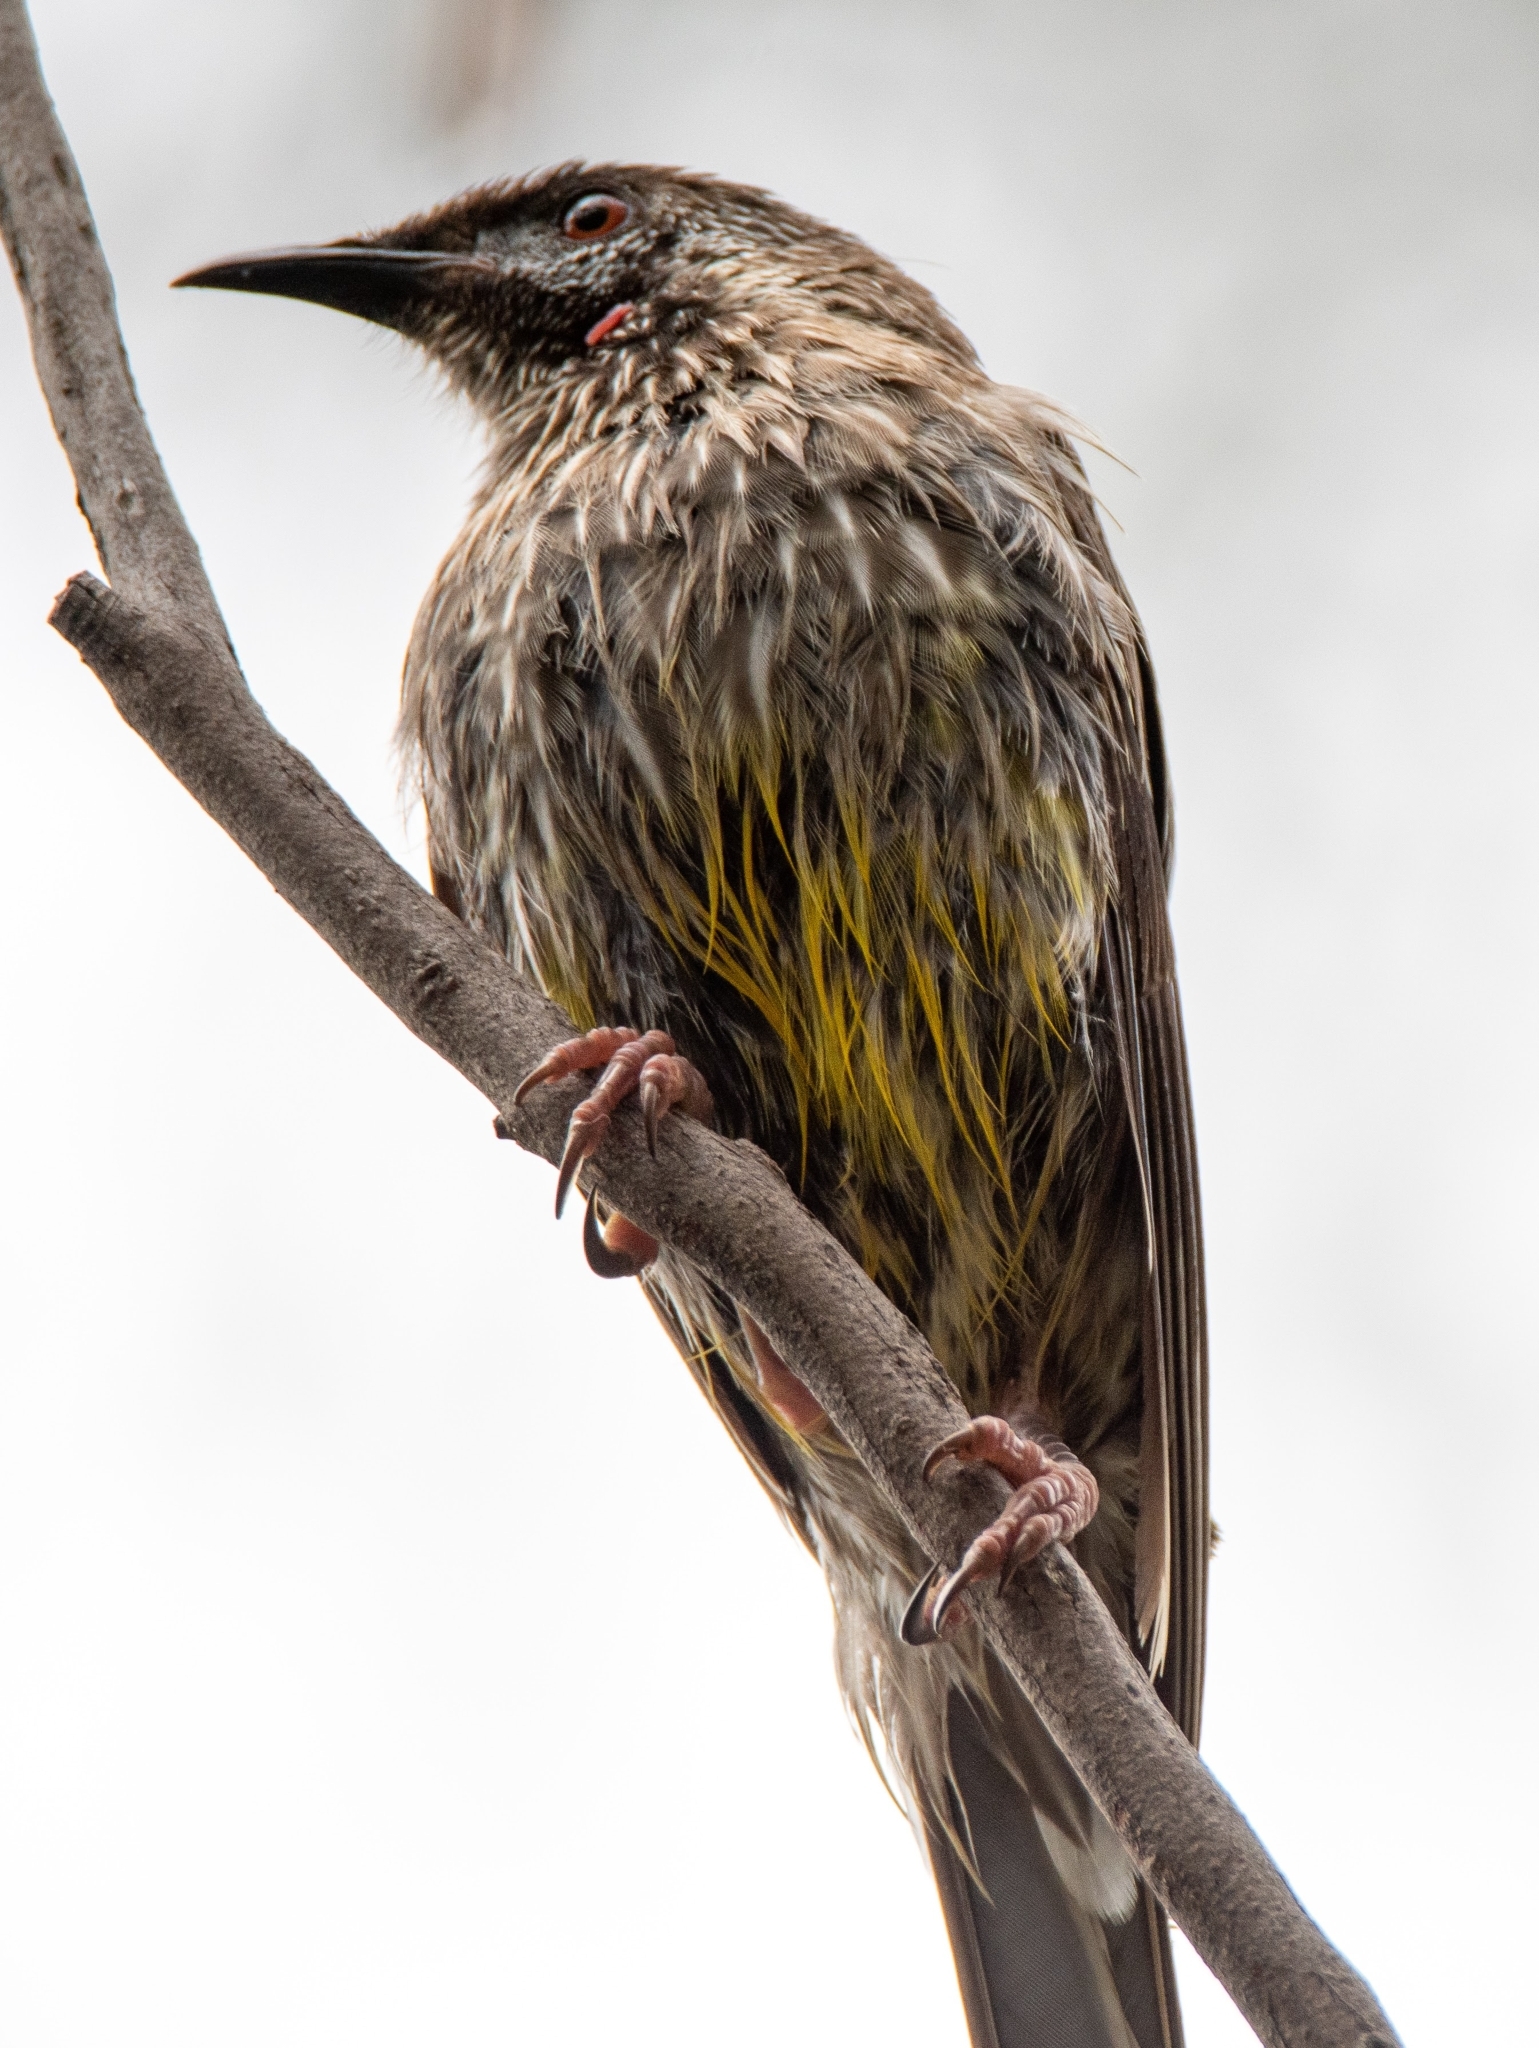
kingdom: Animalia
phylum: Chordata
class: Aves
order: Passeriformes
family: Meliphagidae
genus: Anthochaera
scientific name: Anthochaera carunculata
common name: Red wattlebird
